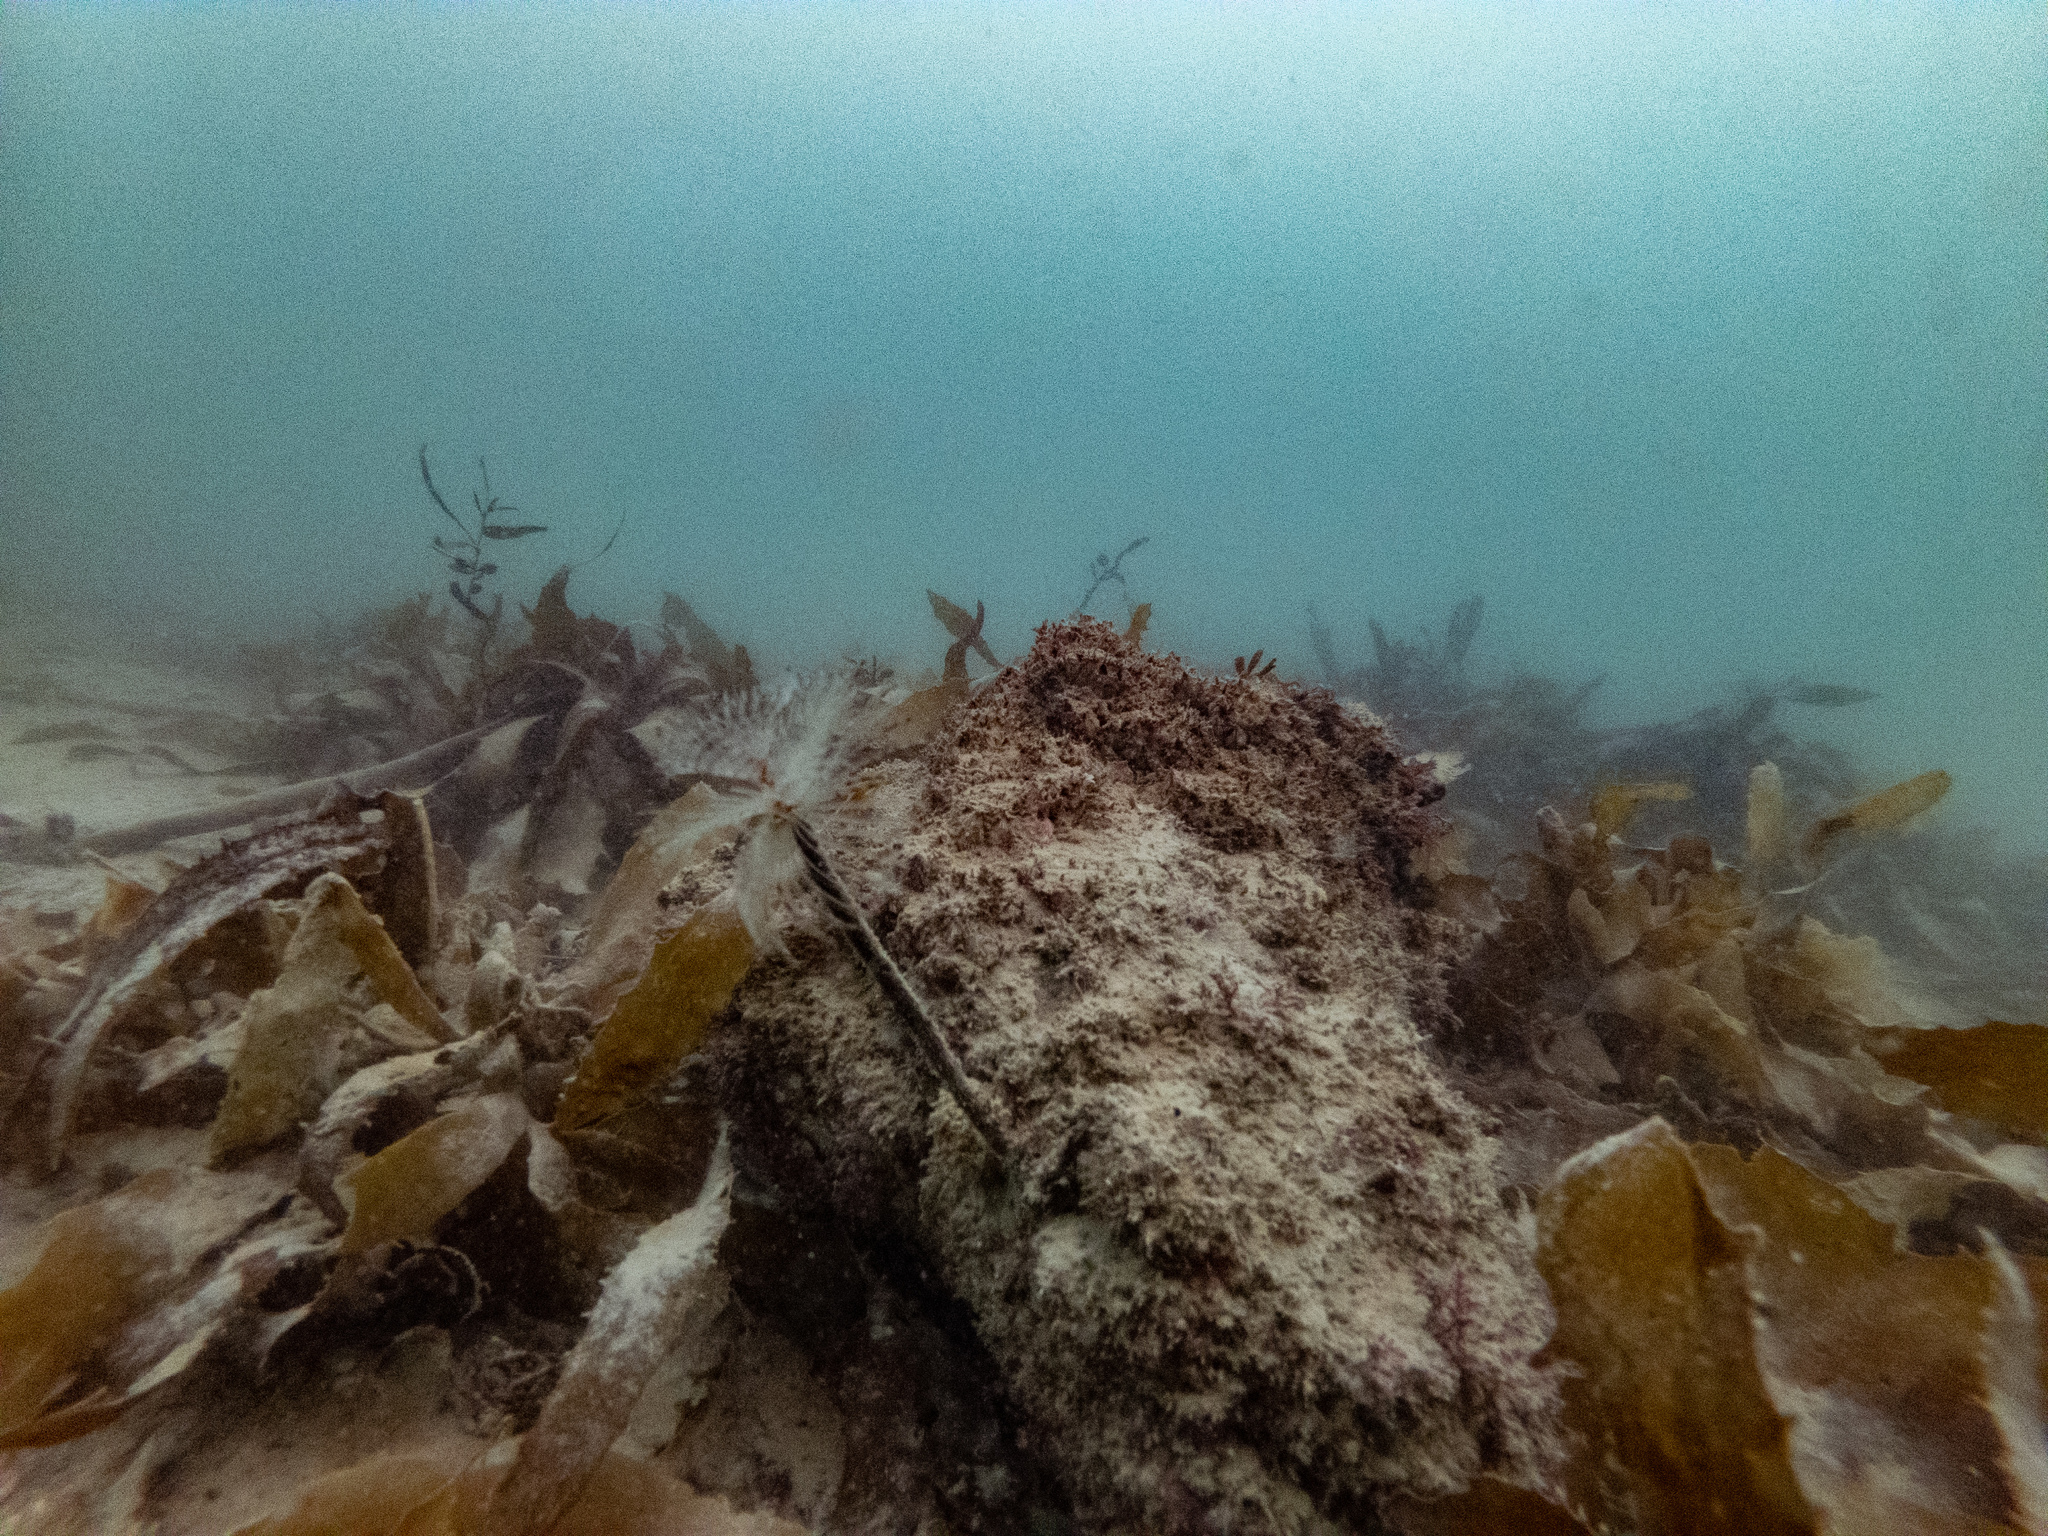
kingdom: Animalia
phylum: Annelida
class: Polychaeta
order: Sabellida
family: Sabellidae
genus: Sabella
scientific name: Sabella spallanzanii
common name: Feather duster worm
